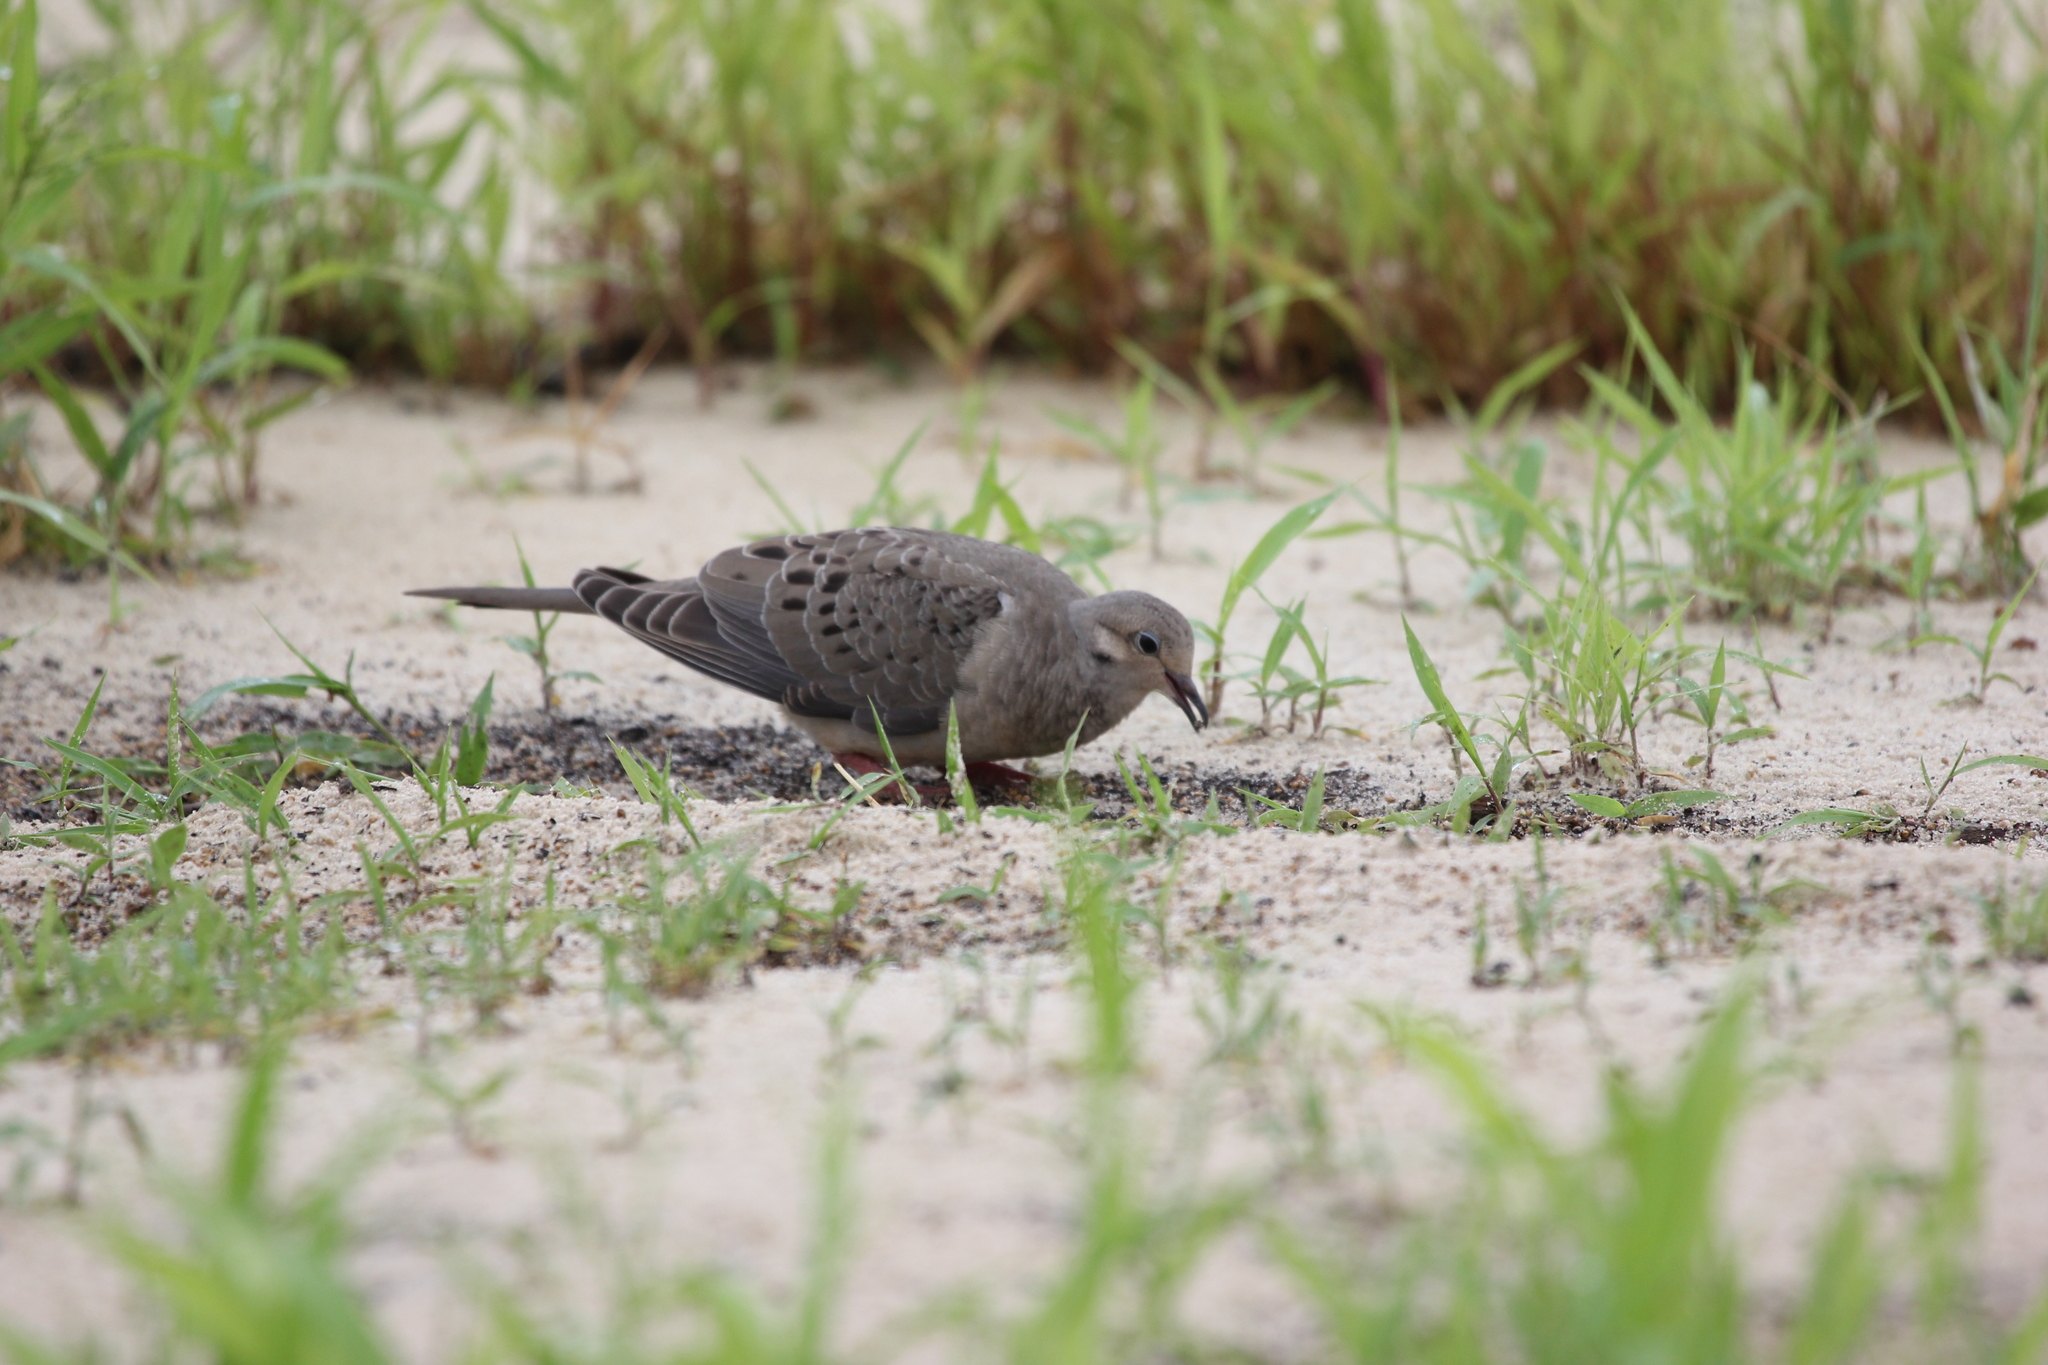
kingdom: Animalia
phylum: Chordata
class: Aves
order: Columbiformes
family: Columbidae
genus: Zenaida
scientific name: Zenaida macroura
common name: Mourning dove
